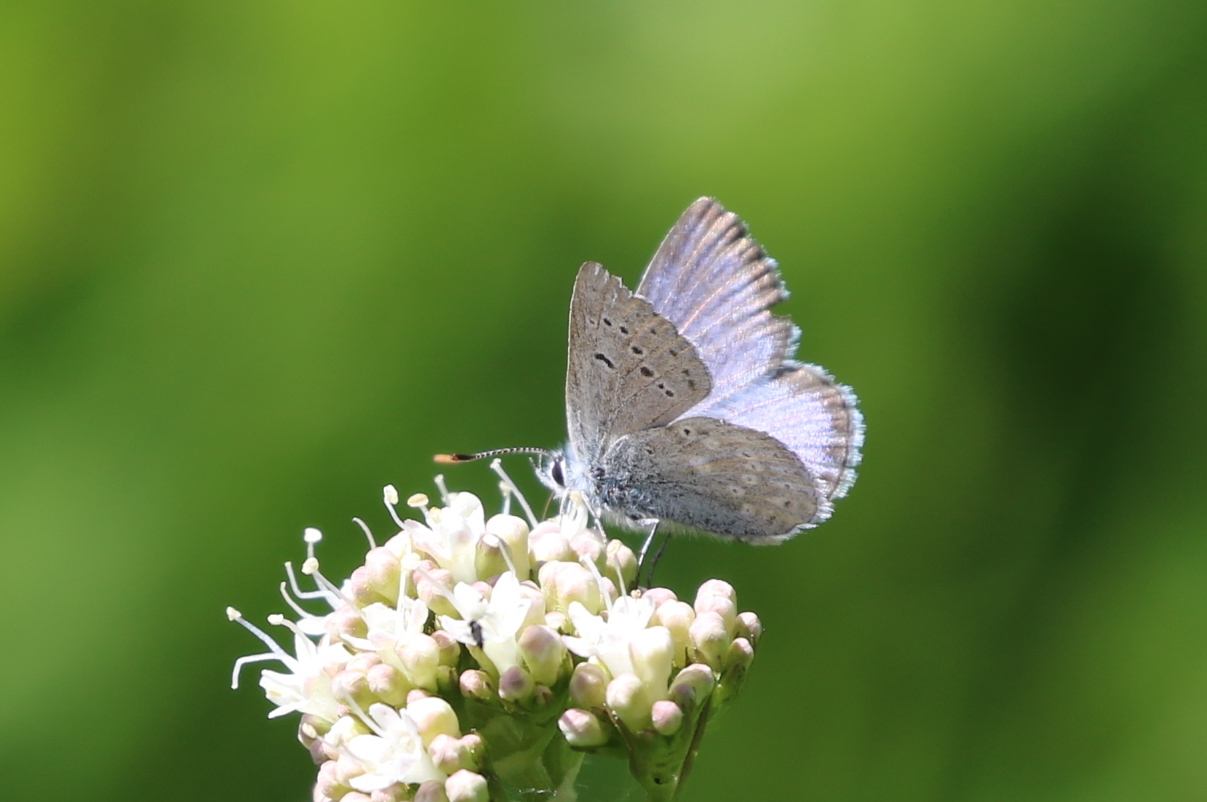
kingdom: Animalia
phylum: Arthropoda
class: Insecta
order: Lepidoptera
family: Lycaenidae
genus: Icaricia
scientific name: Icaricia icarioides
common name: Boisduval's blue
